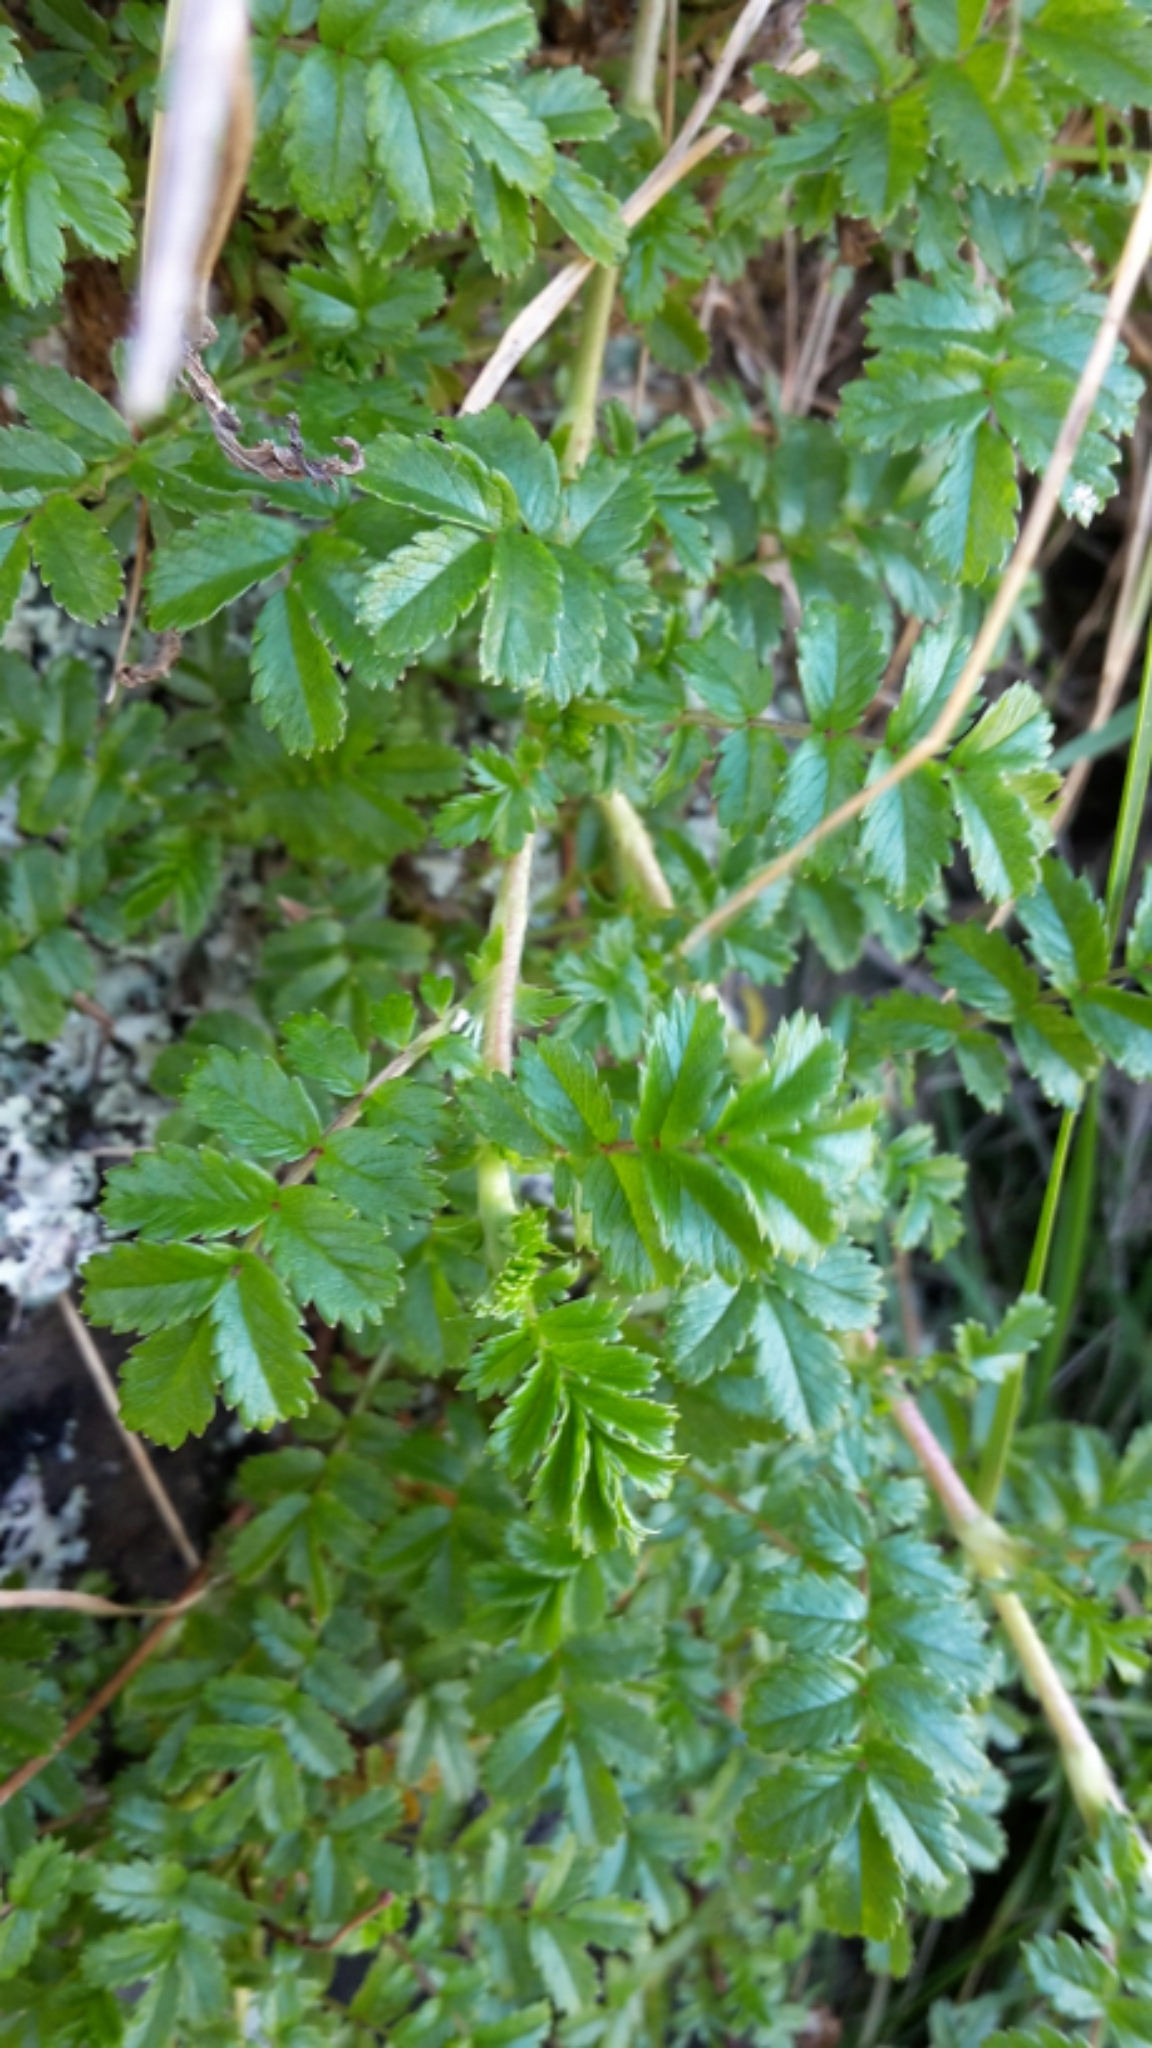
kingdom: Plantae
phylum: Tracheophyta
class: Magnoliopsida
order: Rosales
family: Rosaceae
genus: Acaena
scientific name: Acaena novae-zelandiae
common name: Pirri-pirri-bur
